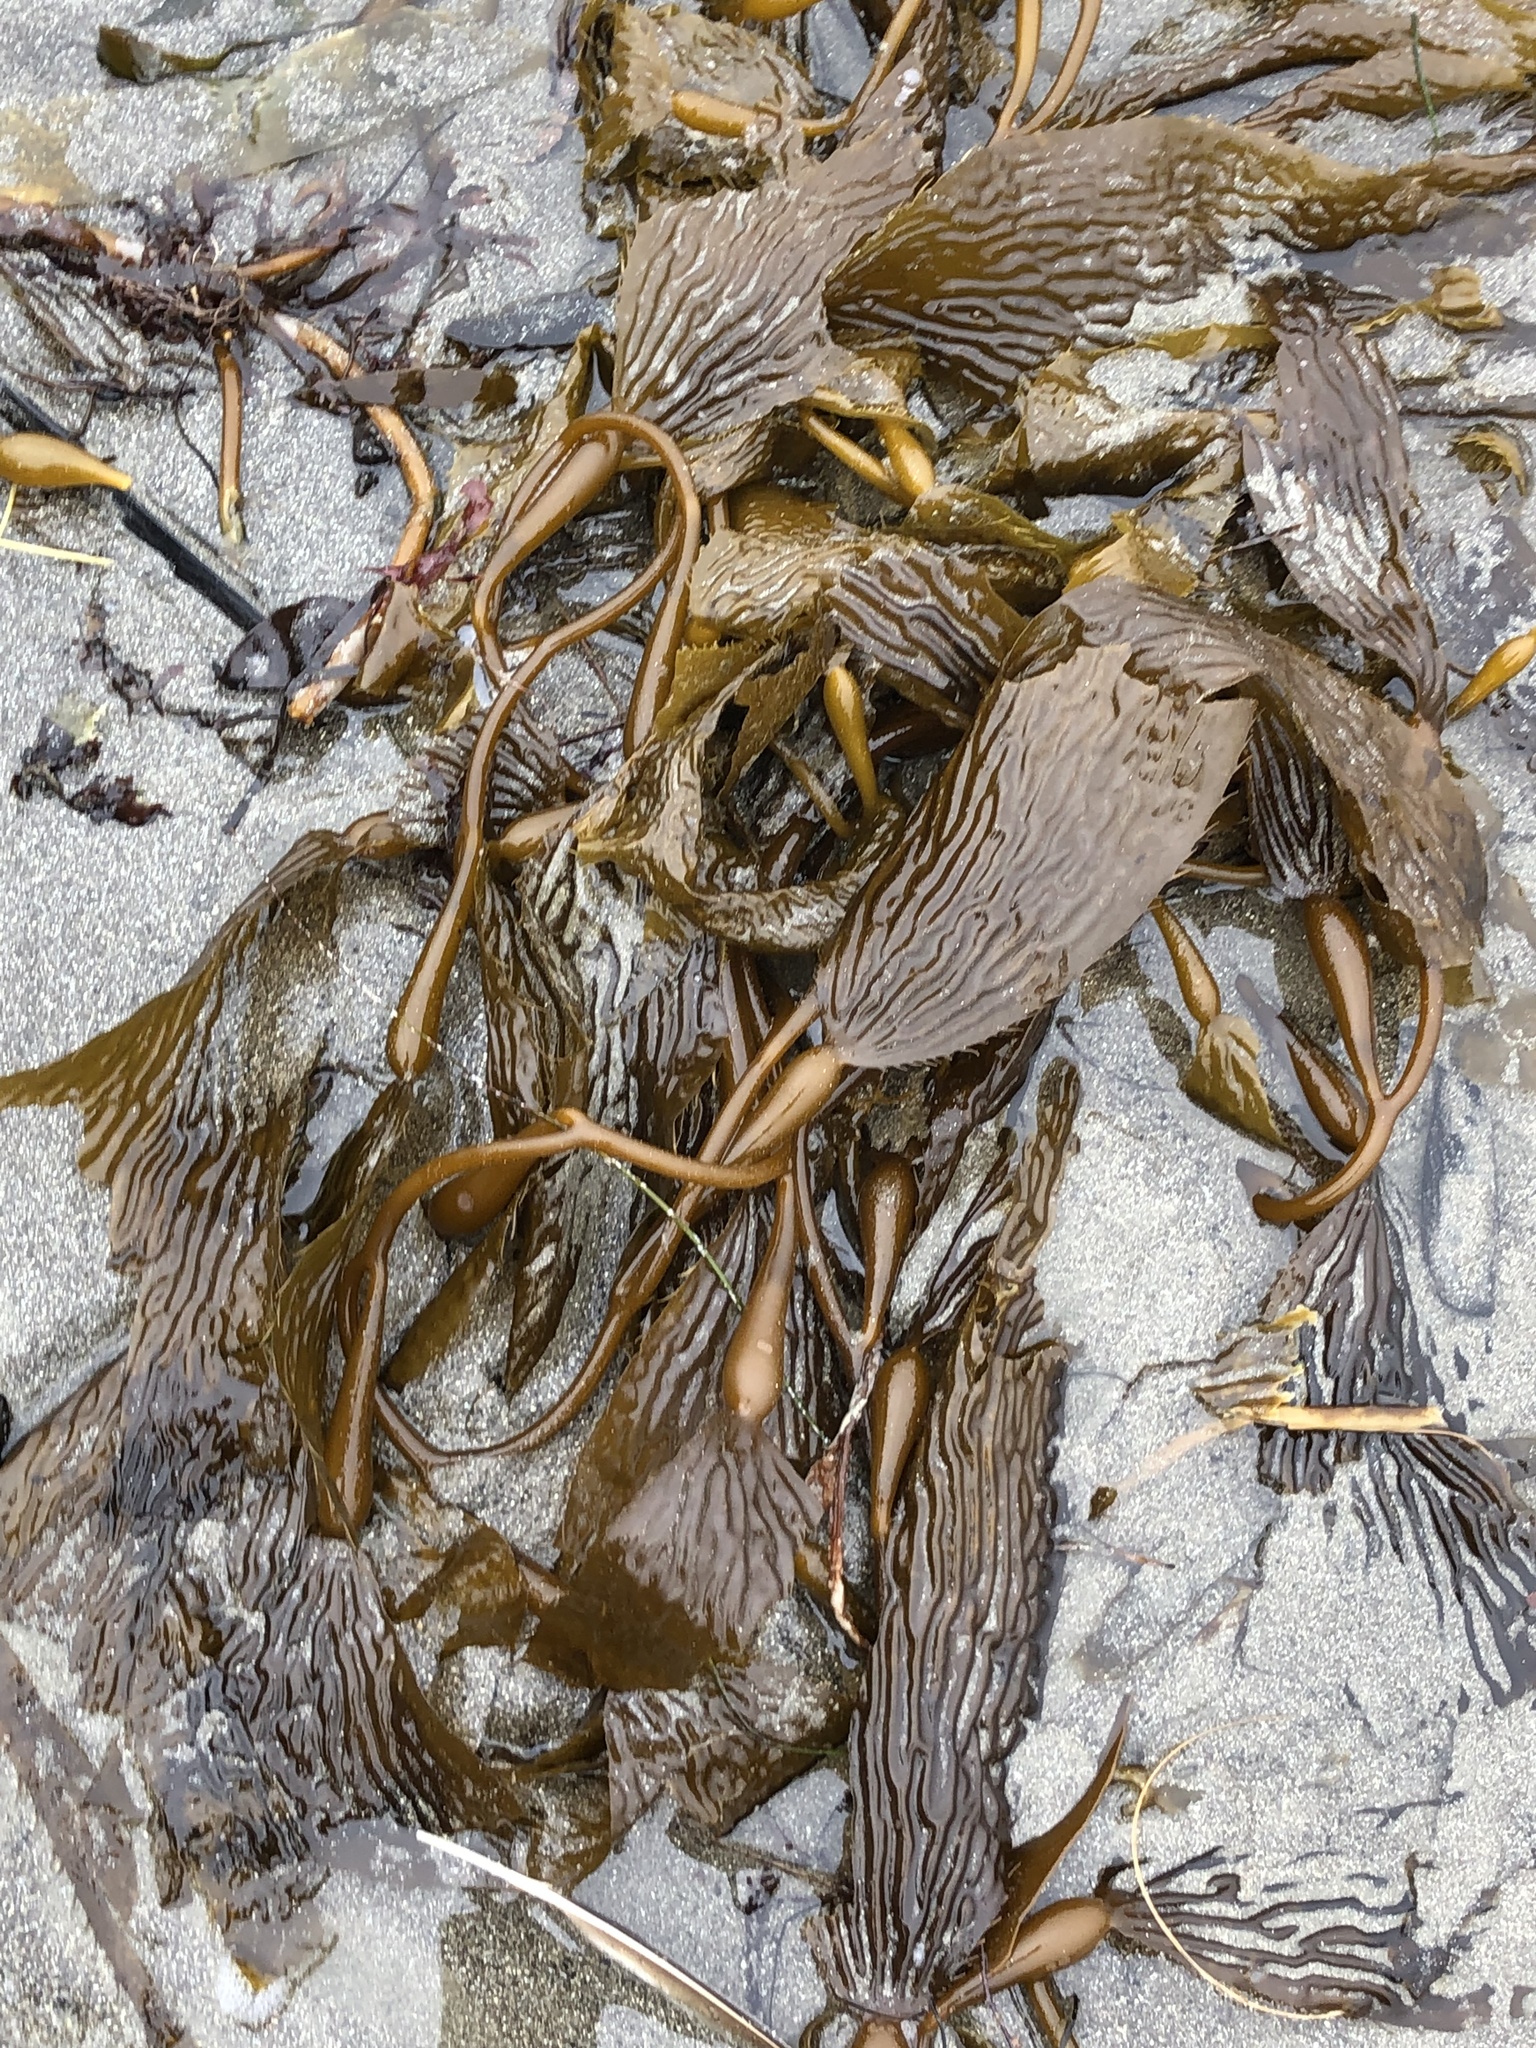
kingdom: Chromista
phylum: Ochrophyta
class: Phaeophyceae
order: Laminariales
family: Laminariaceae
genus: Macrocystis
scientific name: Macrocystis pyrifera
